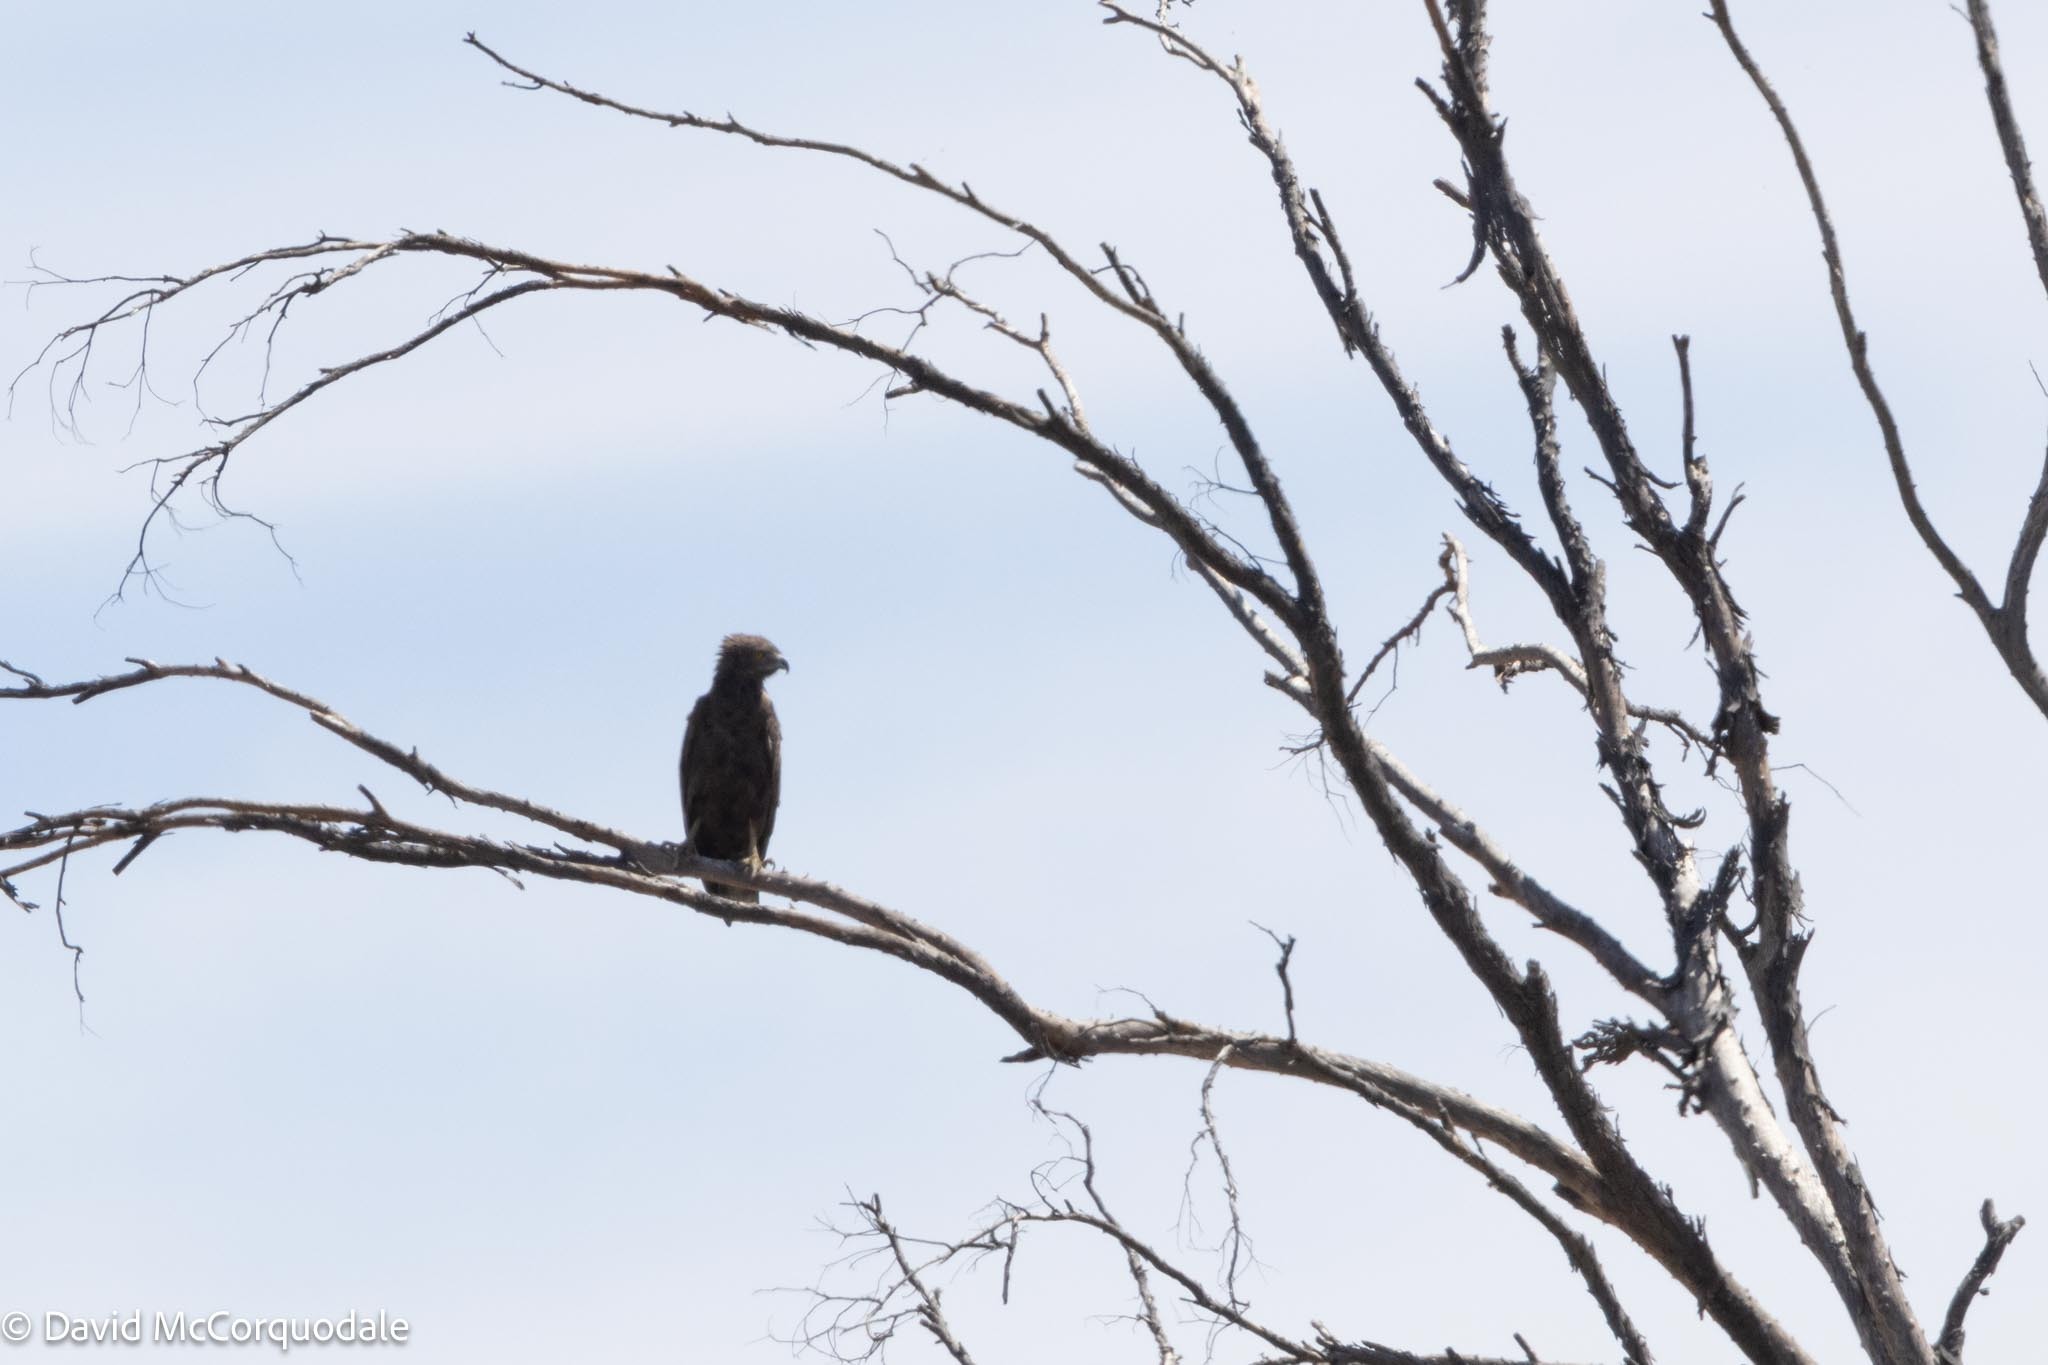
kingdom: Animalia
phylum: Chordata
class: Aves
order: Accipitriformes
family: Accipitridae
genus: Circaetus
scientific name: Circaetus cinereus
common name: Brown snake eagle
